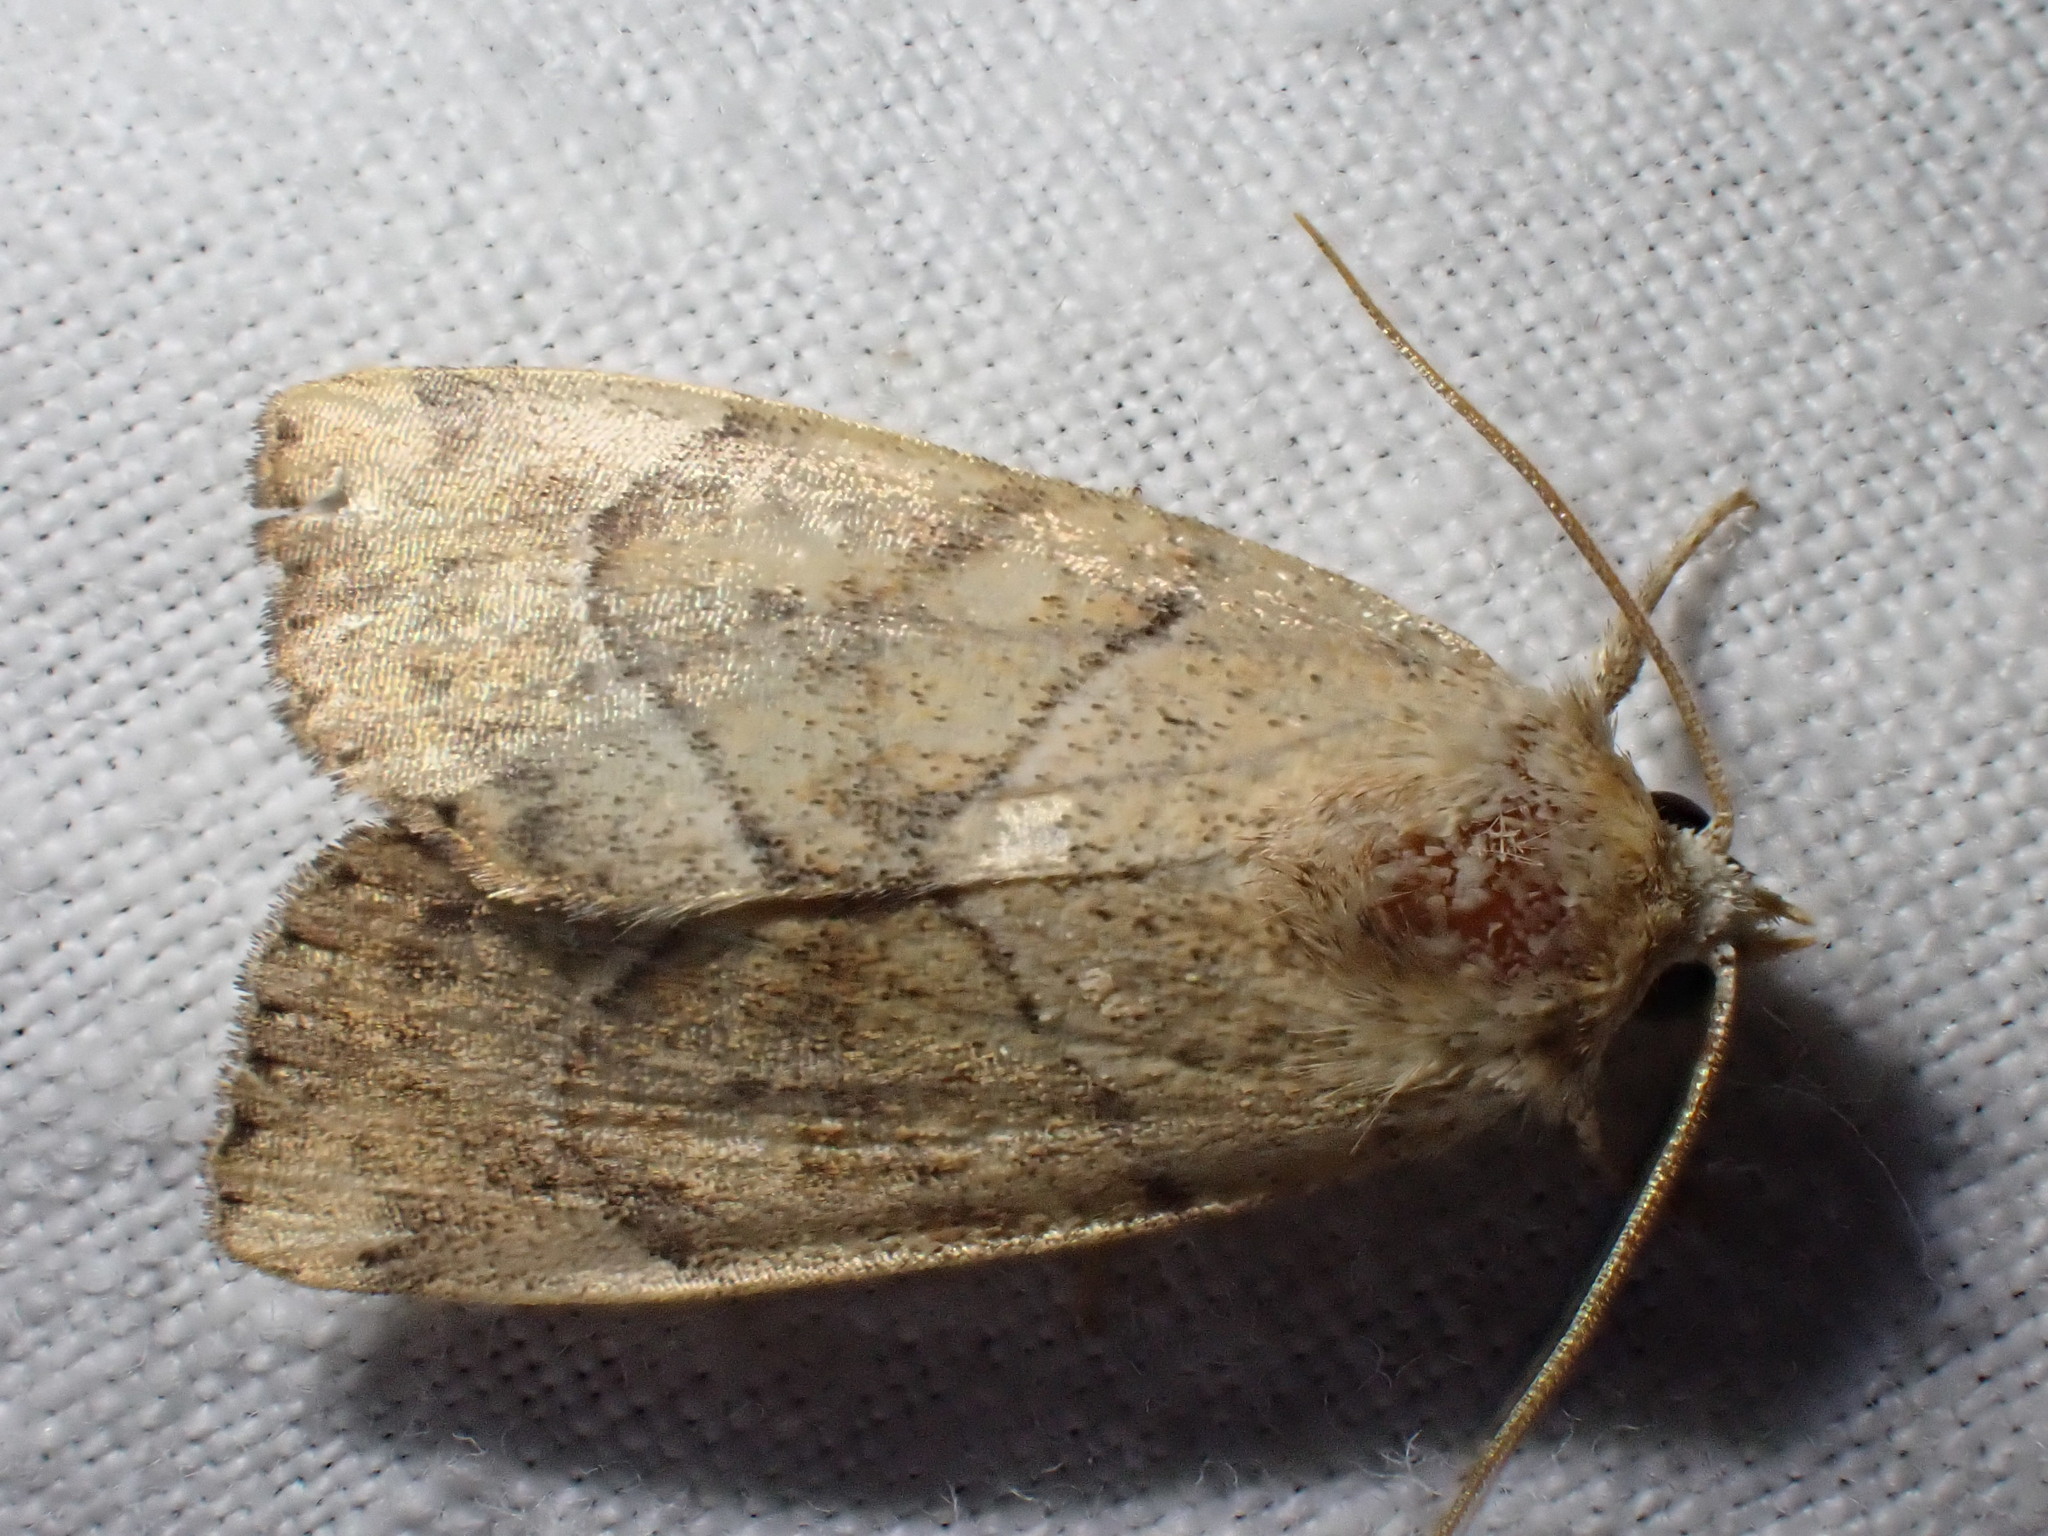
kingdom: Animalia
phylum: Arthropoda
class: Insecta
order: Lepidoptera
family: Noctuidae
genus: Cosmia
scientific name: Cosmia trapezina
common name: Dun-bar
